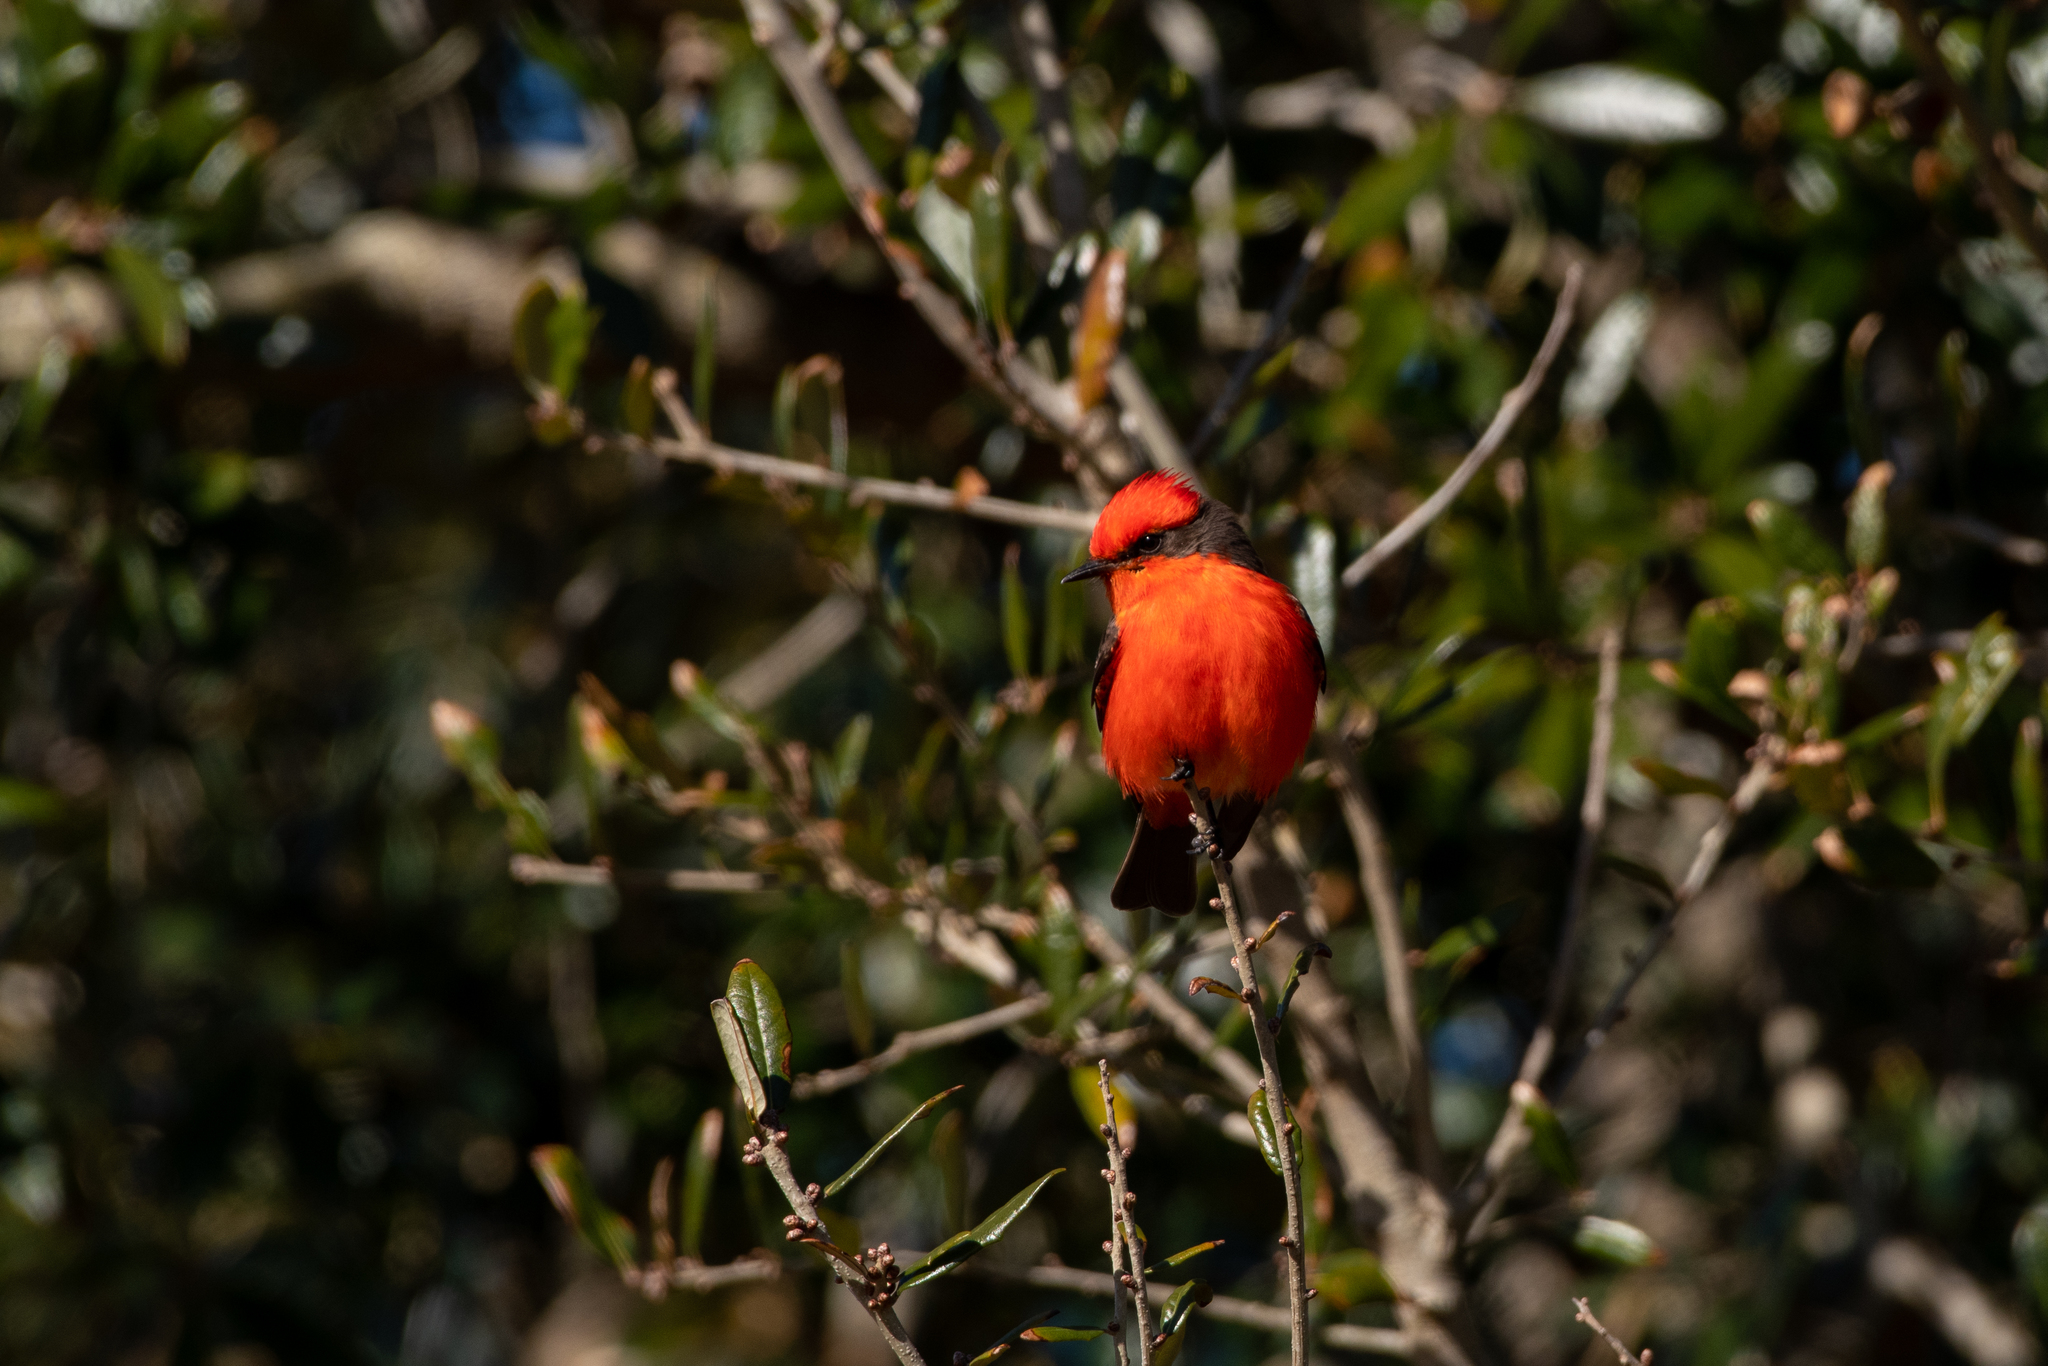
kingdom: Animalia
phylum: Chordata
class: Aves
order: Passeriformes
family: Tyrannidae
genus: Pyrocephalus
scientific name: Pyrocephalus rubinus
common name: Vermilion flycatcher
